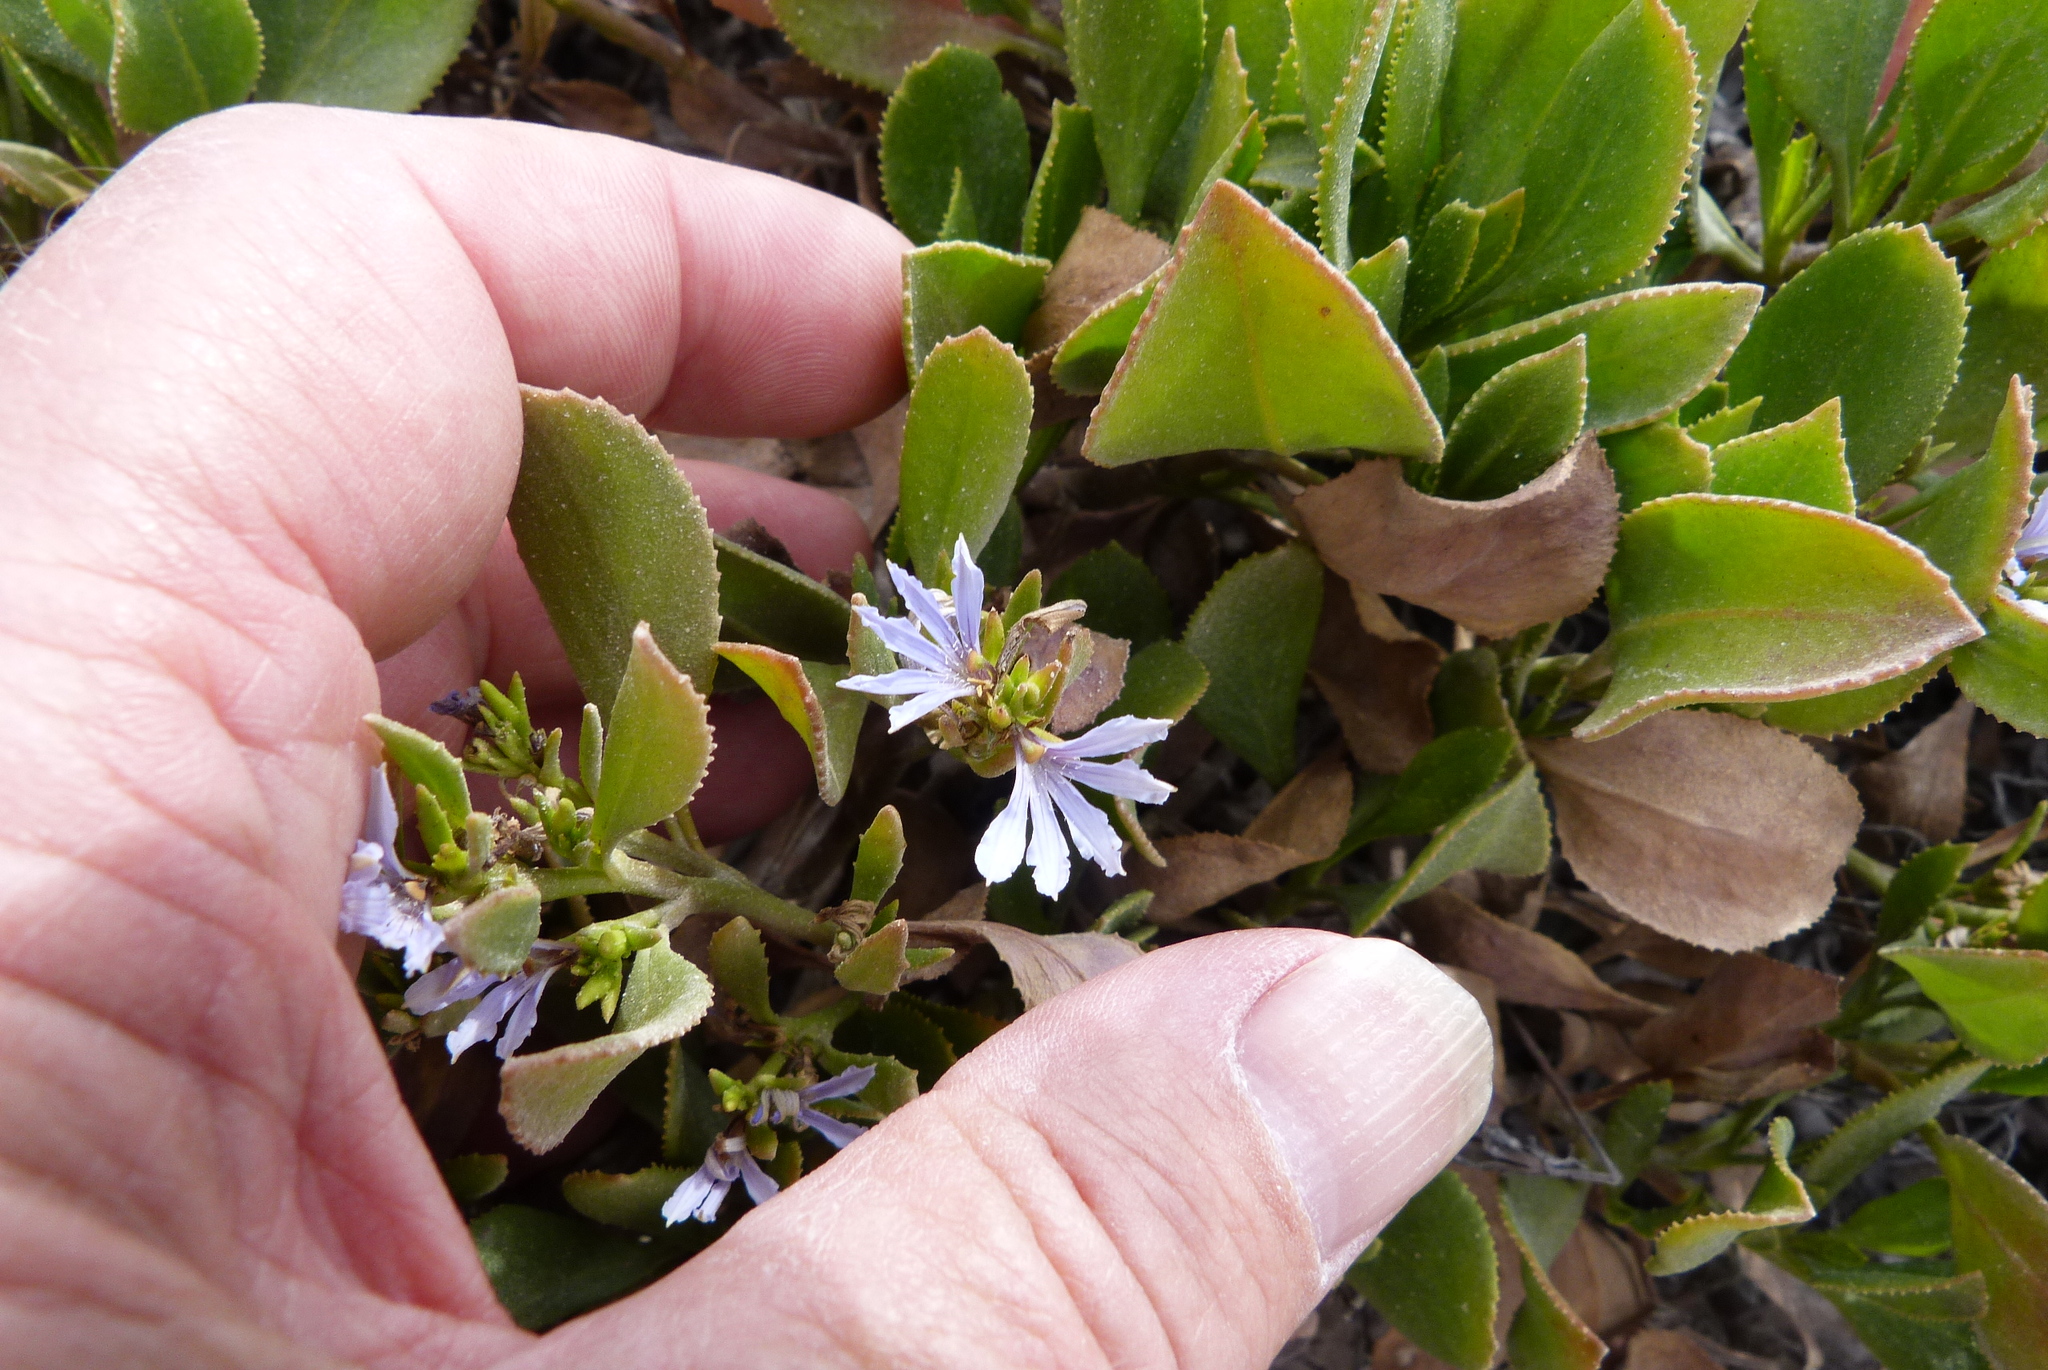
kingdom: Plantae
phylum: Tracheophyta
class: Magnoliopsida
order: Asterales
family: Goodeniaceae
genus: Scaevola
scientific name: Scaevola crassifolia
